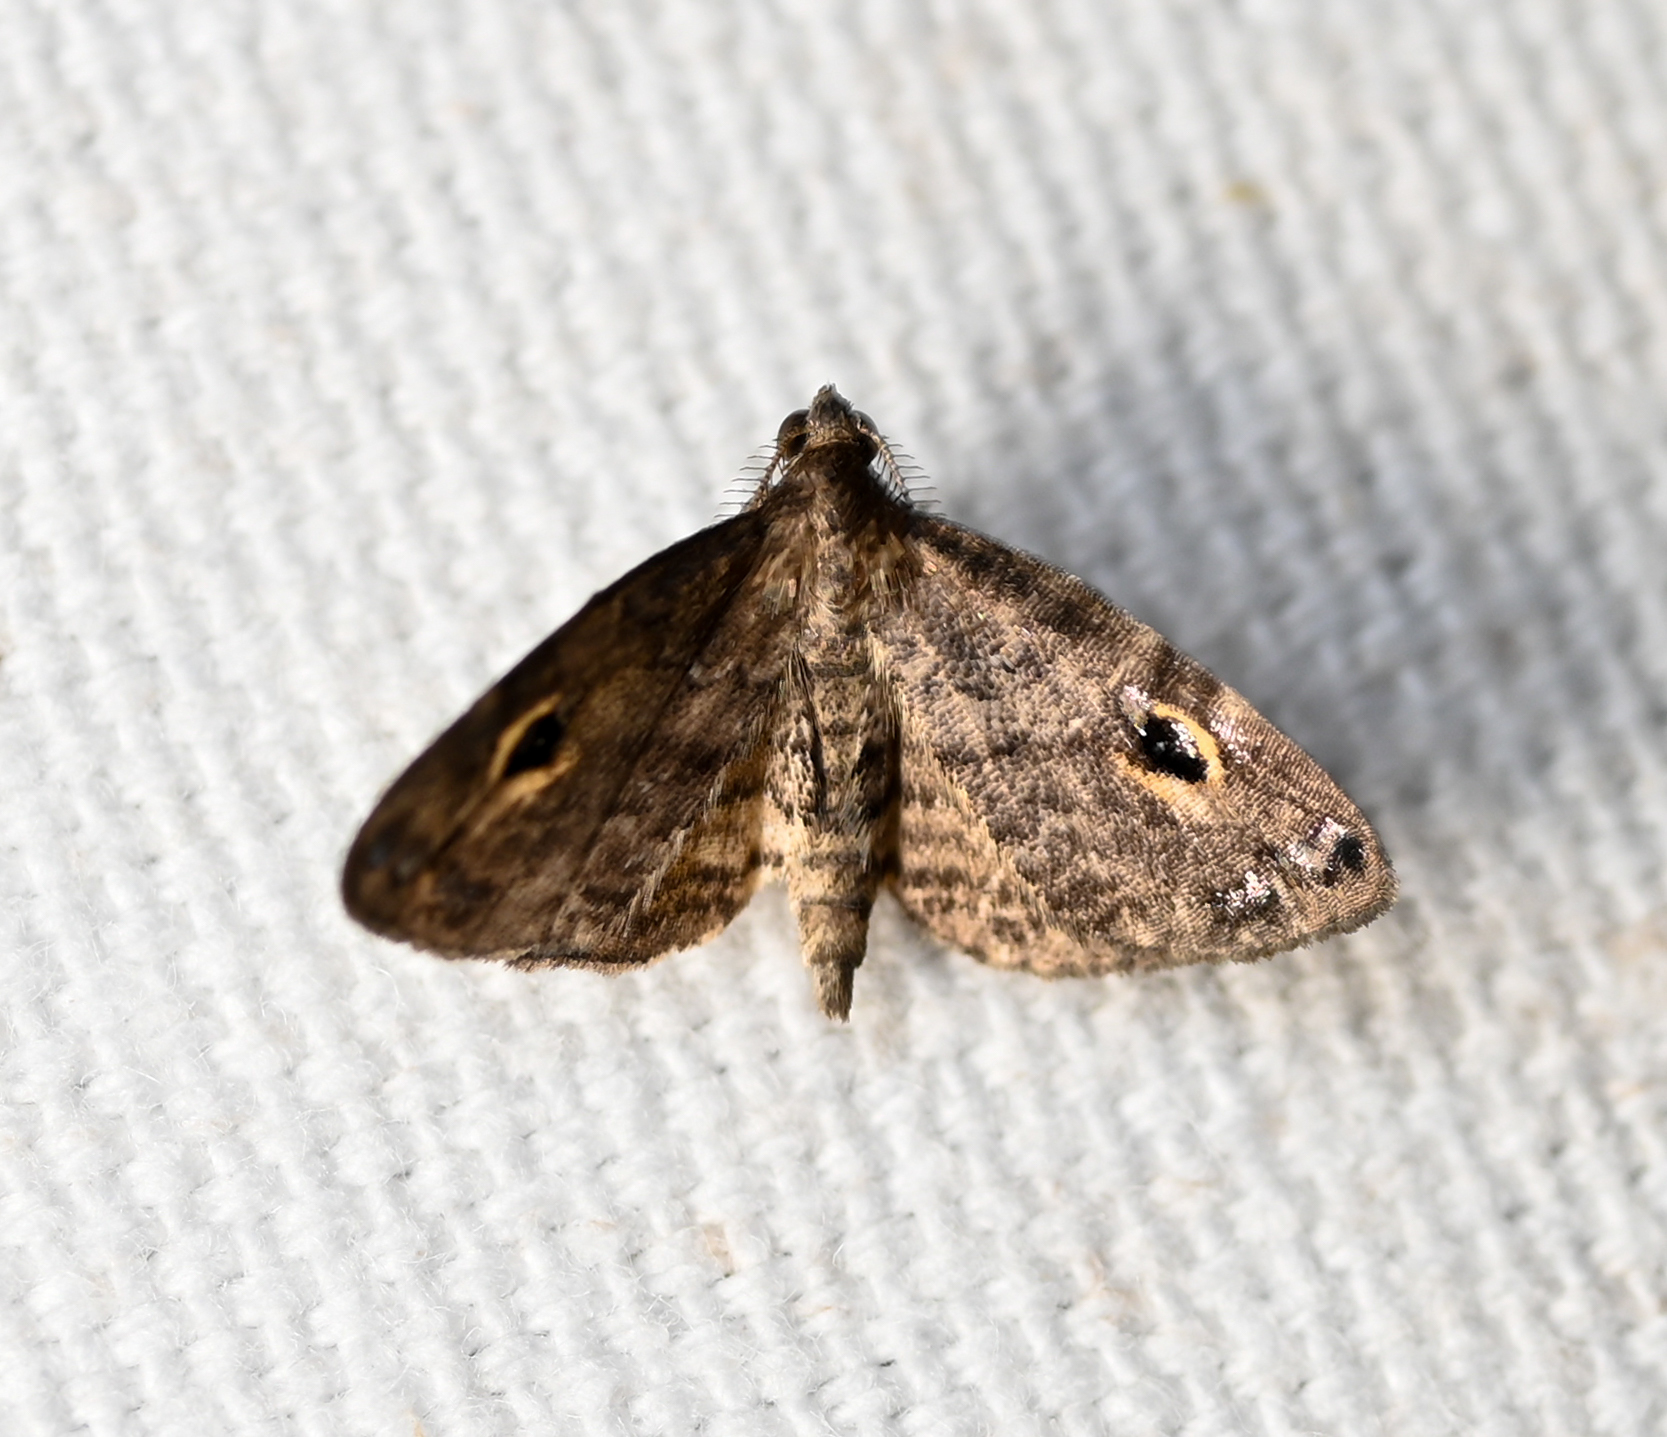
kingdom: Animalia
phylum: Arthropoda
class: Insecta
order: Lepidoptera
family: Erebidae
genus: Melanomma
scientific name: Melanomma auricinctaria
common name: Gold-lined melanomma moth
